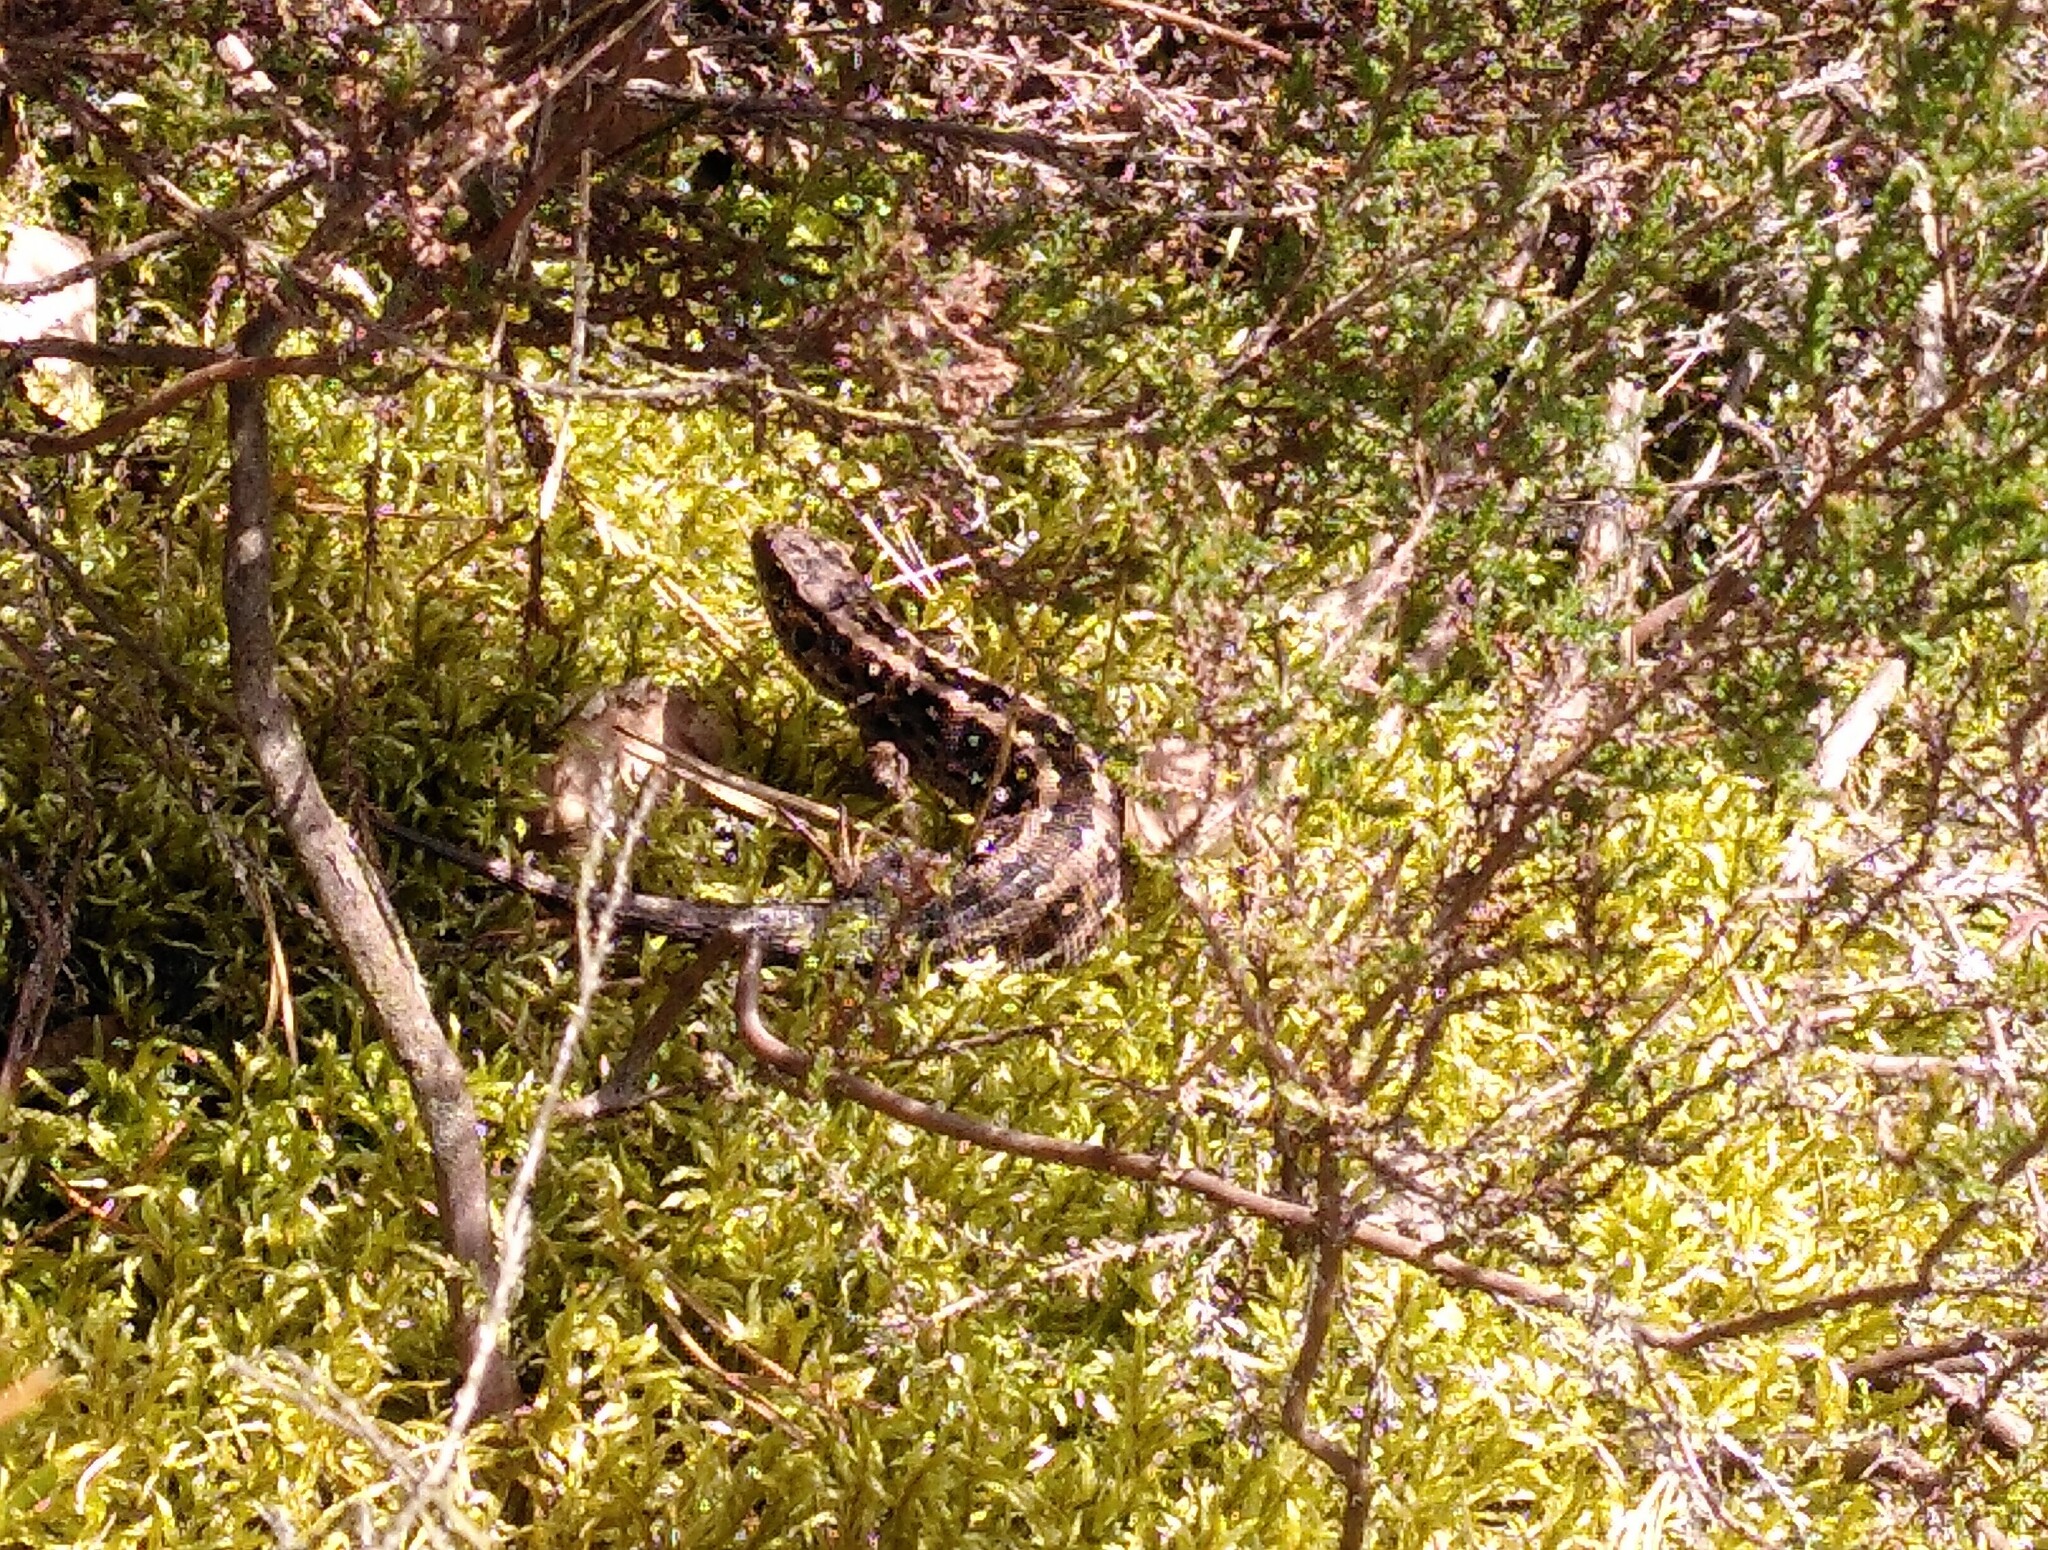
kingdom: Animalia
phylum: Chordata
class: Squamata
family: Lacertidae
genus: Lacerta
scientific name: Lacerta agilis
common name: Sand lizard
